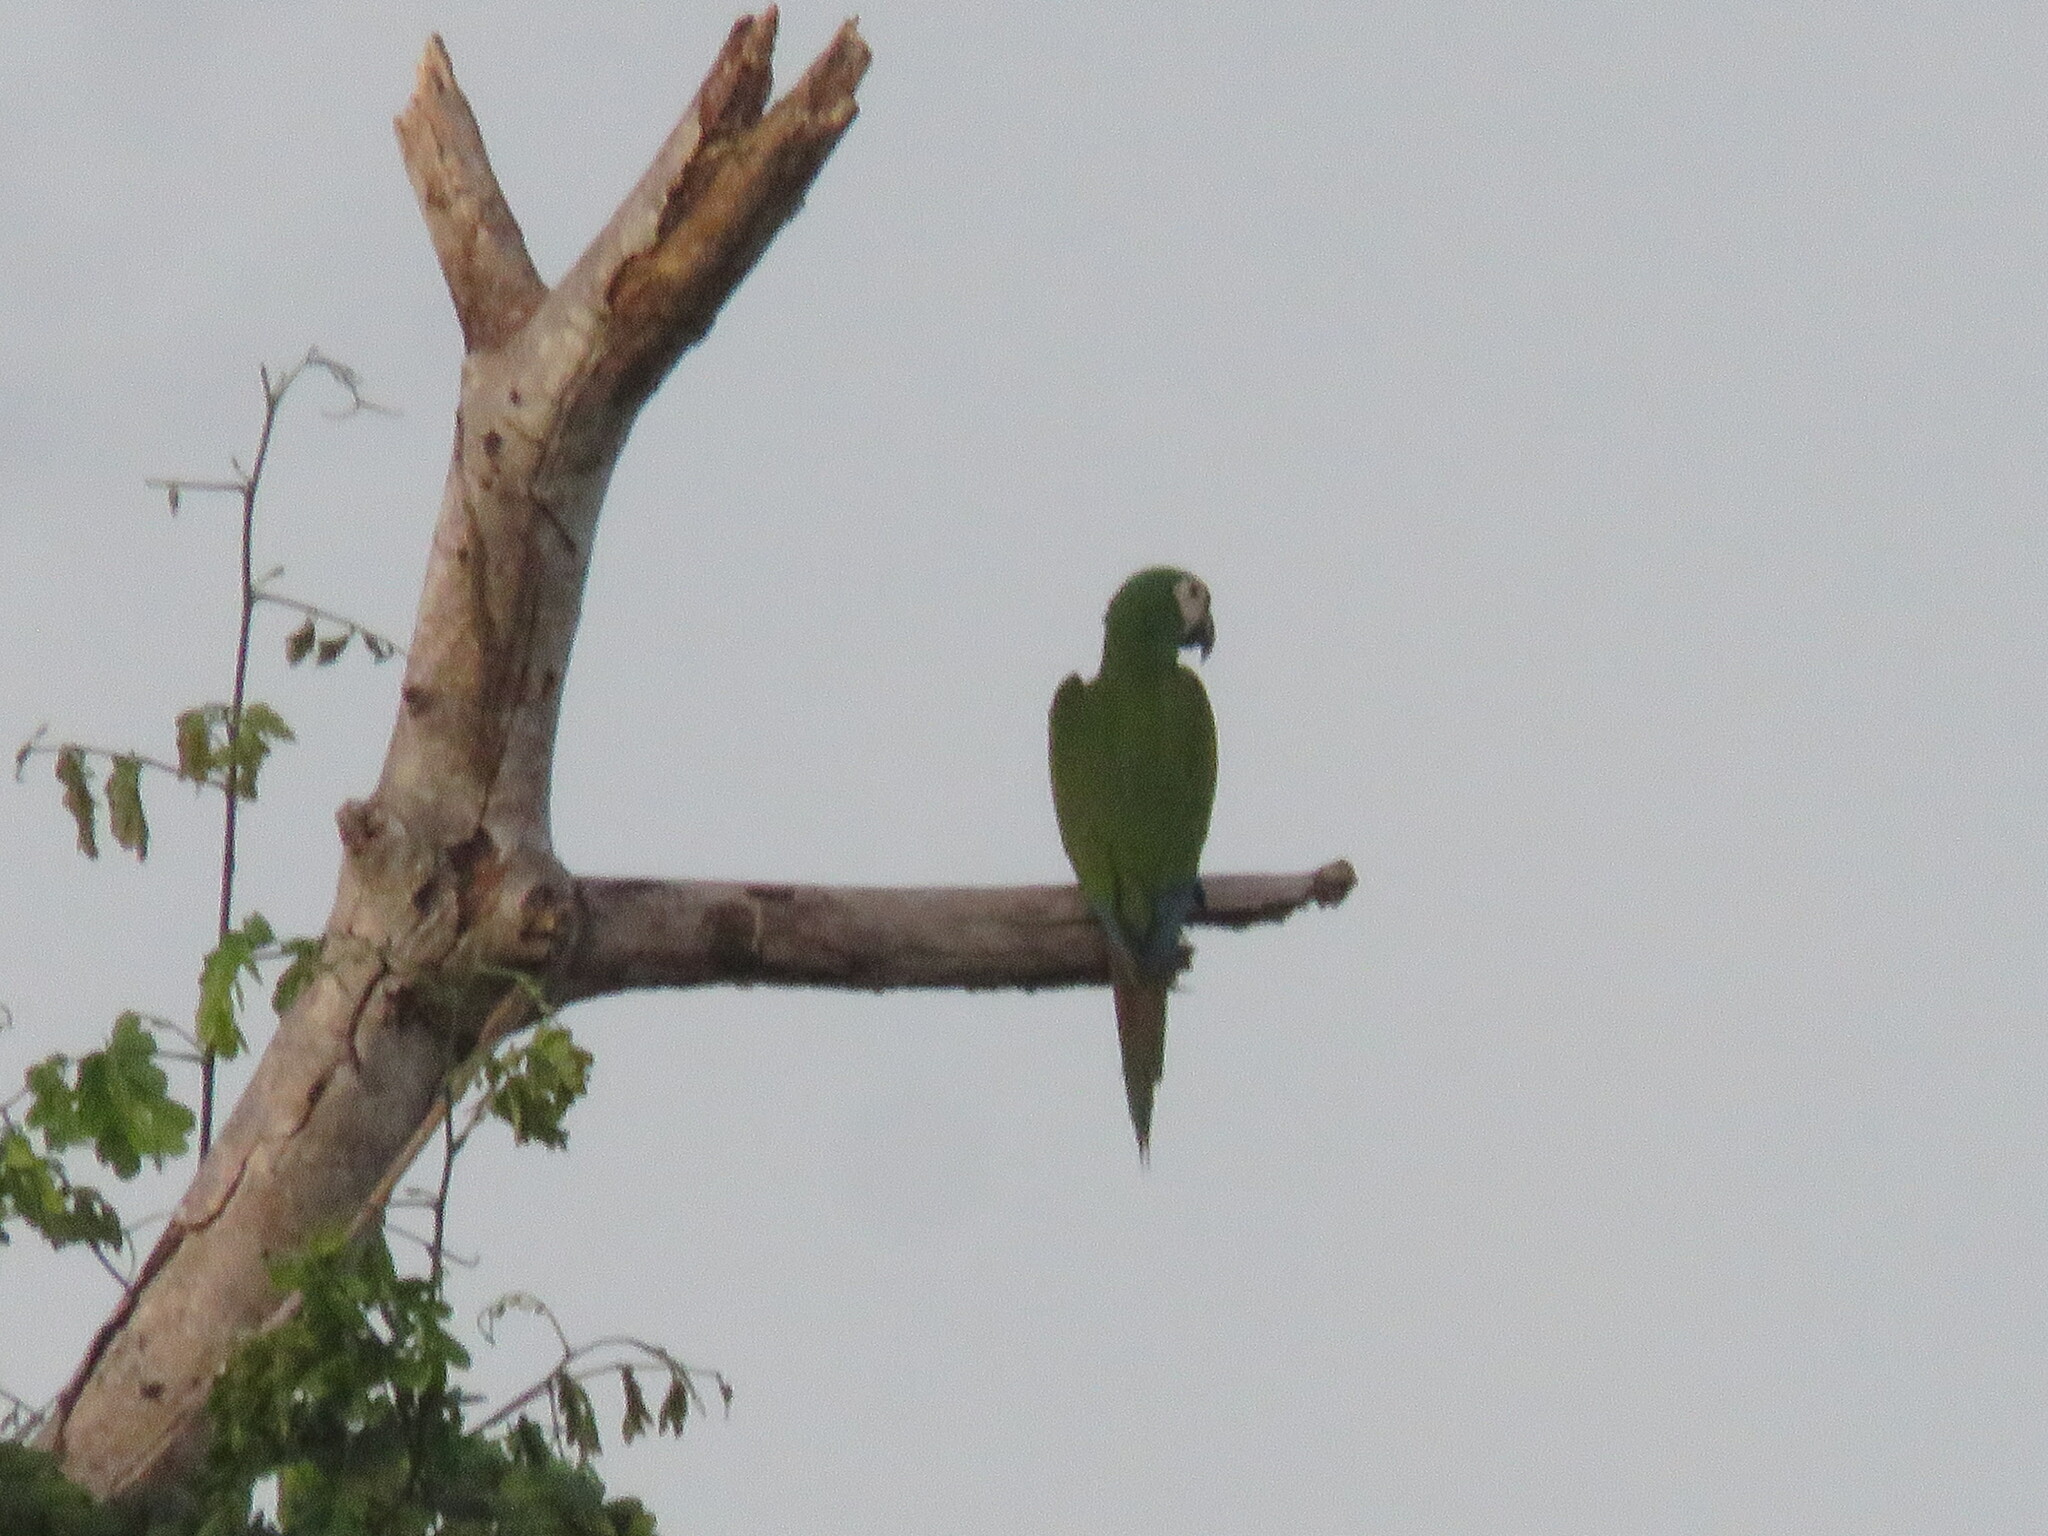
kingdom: Animalia
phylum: Chordata
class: Aves
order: Psittaciformes
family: Psittacidae
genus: Ara
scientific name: Ara severus
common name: Chestnut-fronted macaw
